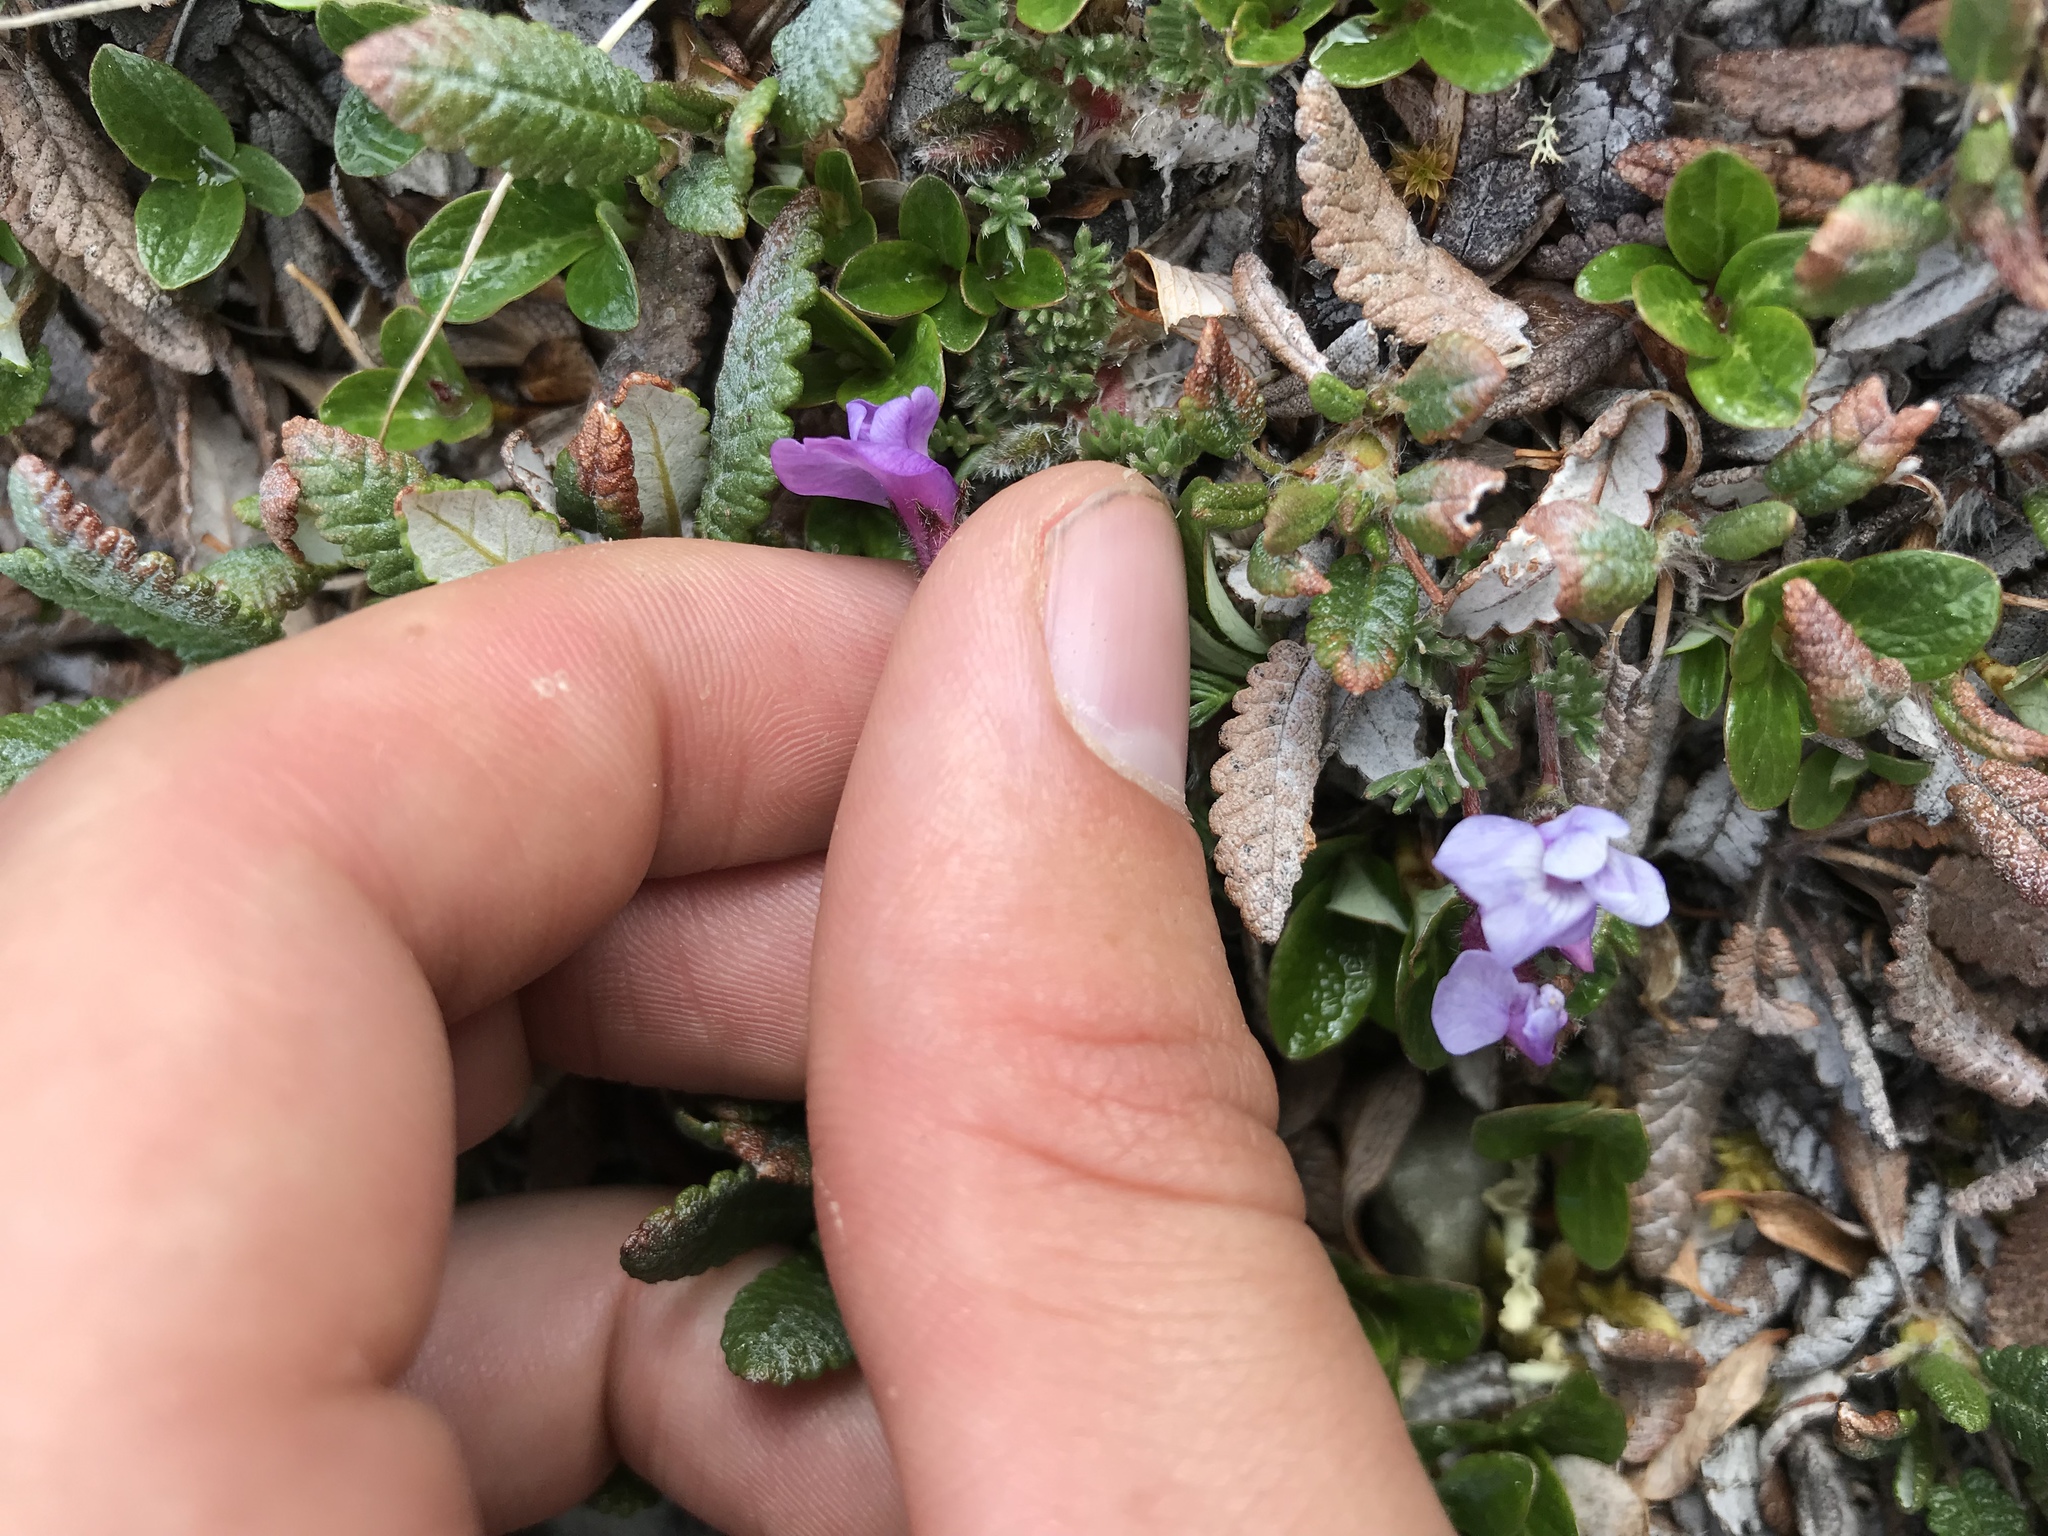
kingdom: Plantae
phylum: Tracheophyta
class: Magnoliopsida
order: Fabales
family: Fabaceae
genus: Oxytropis
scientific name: Oxytropis podocarpa
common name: Gray's oxytrope
